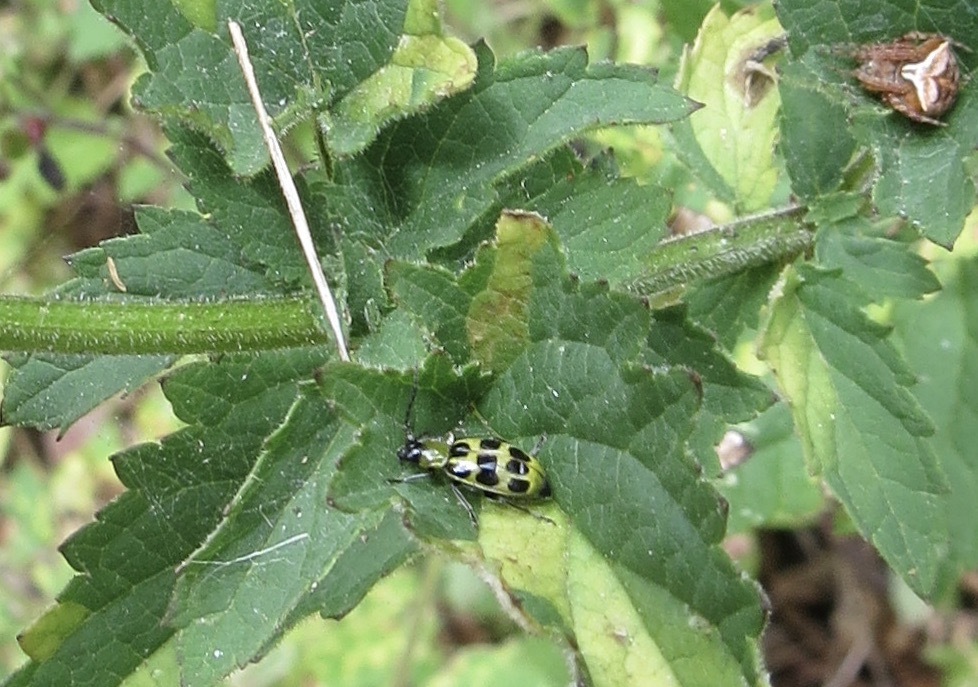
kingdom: Animalia
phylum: Arthropoda
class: Insecta
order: Coleoptera
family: Chrysomelidae
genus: Diabrotica
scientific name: Diabrotica undecimpunctata
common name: Spotted cucumber beetle
